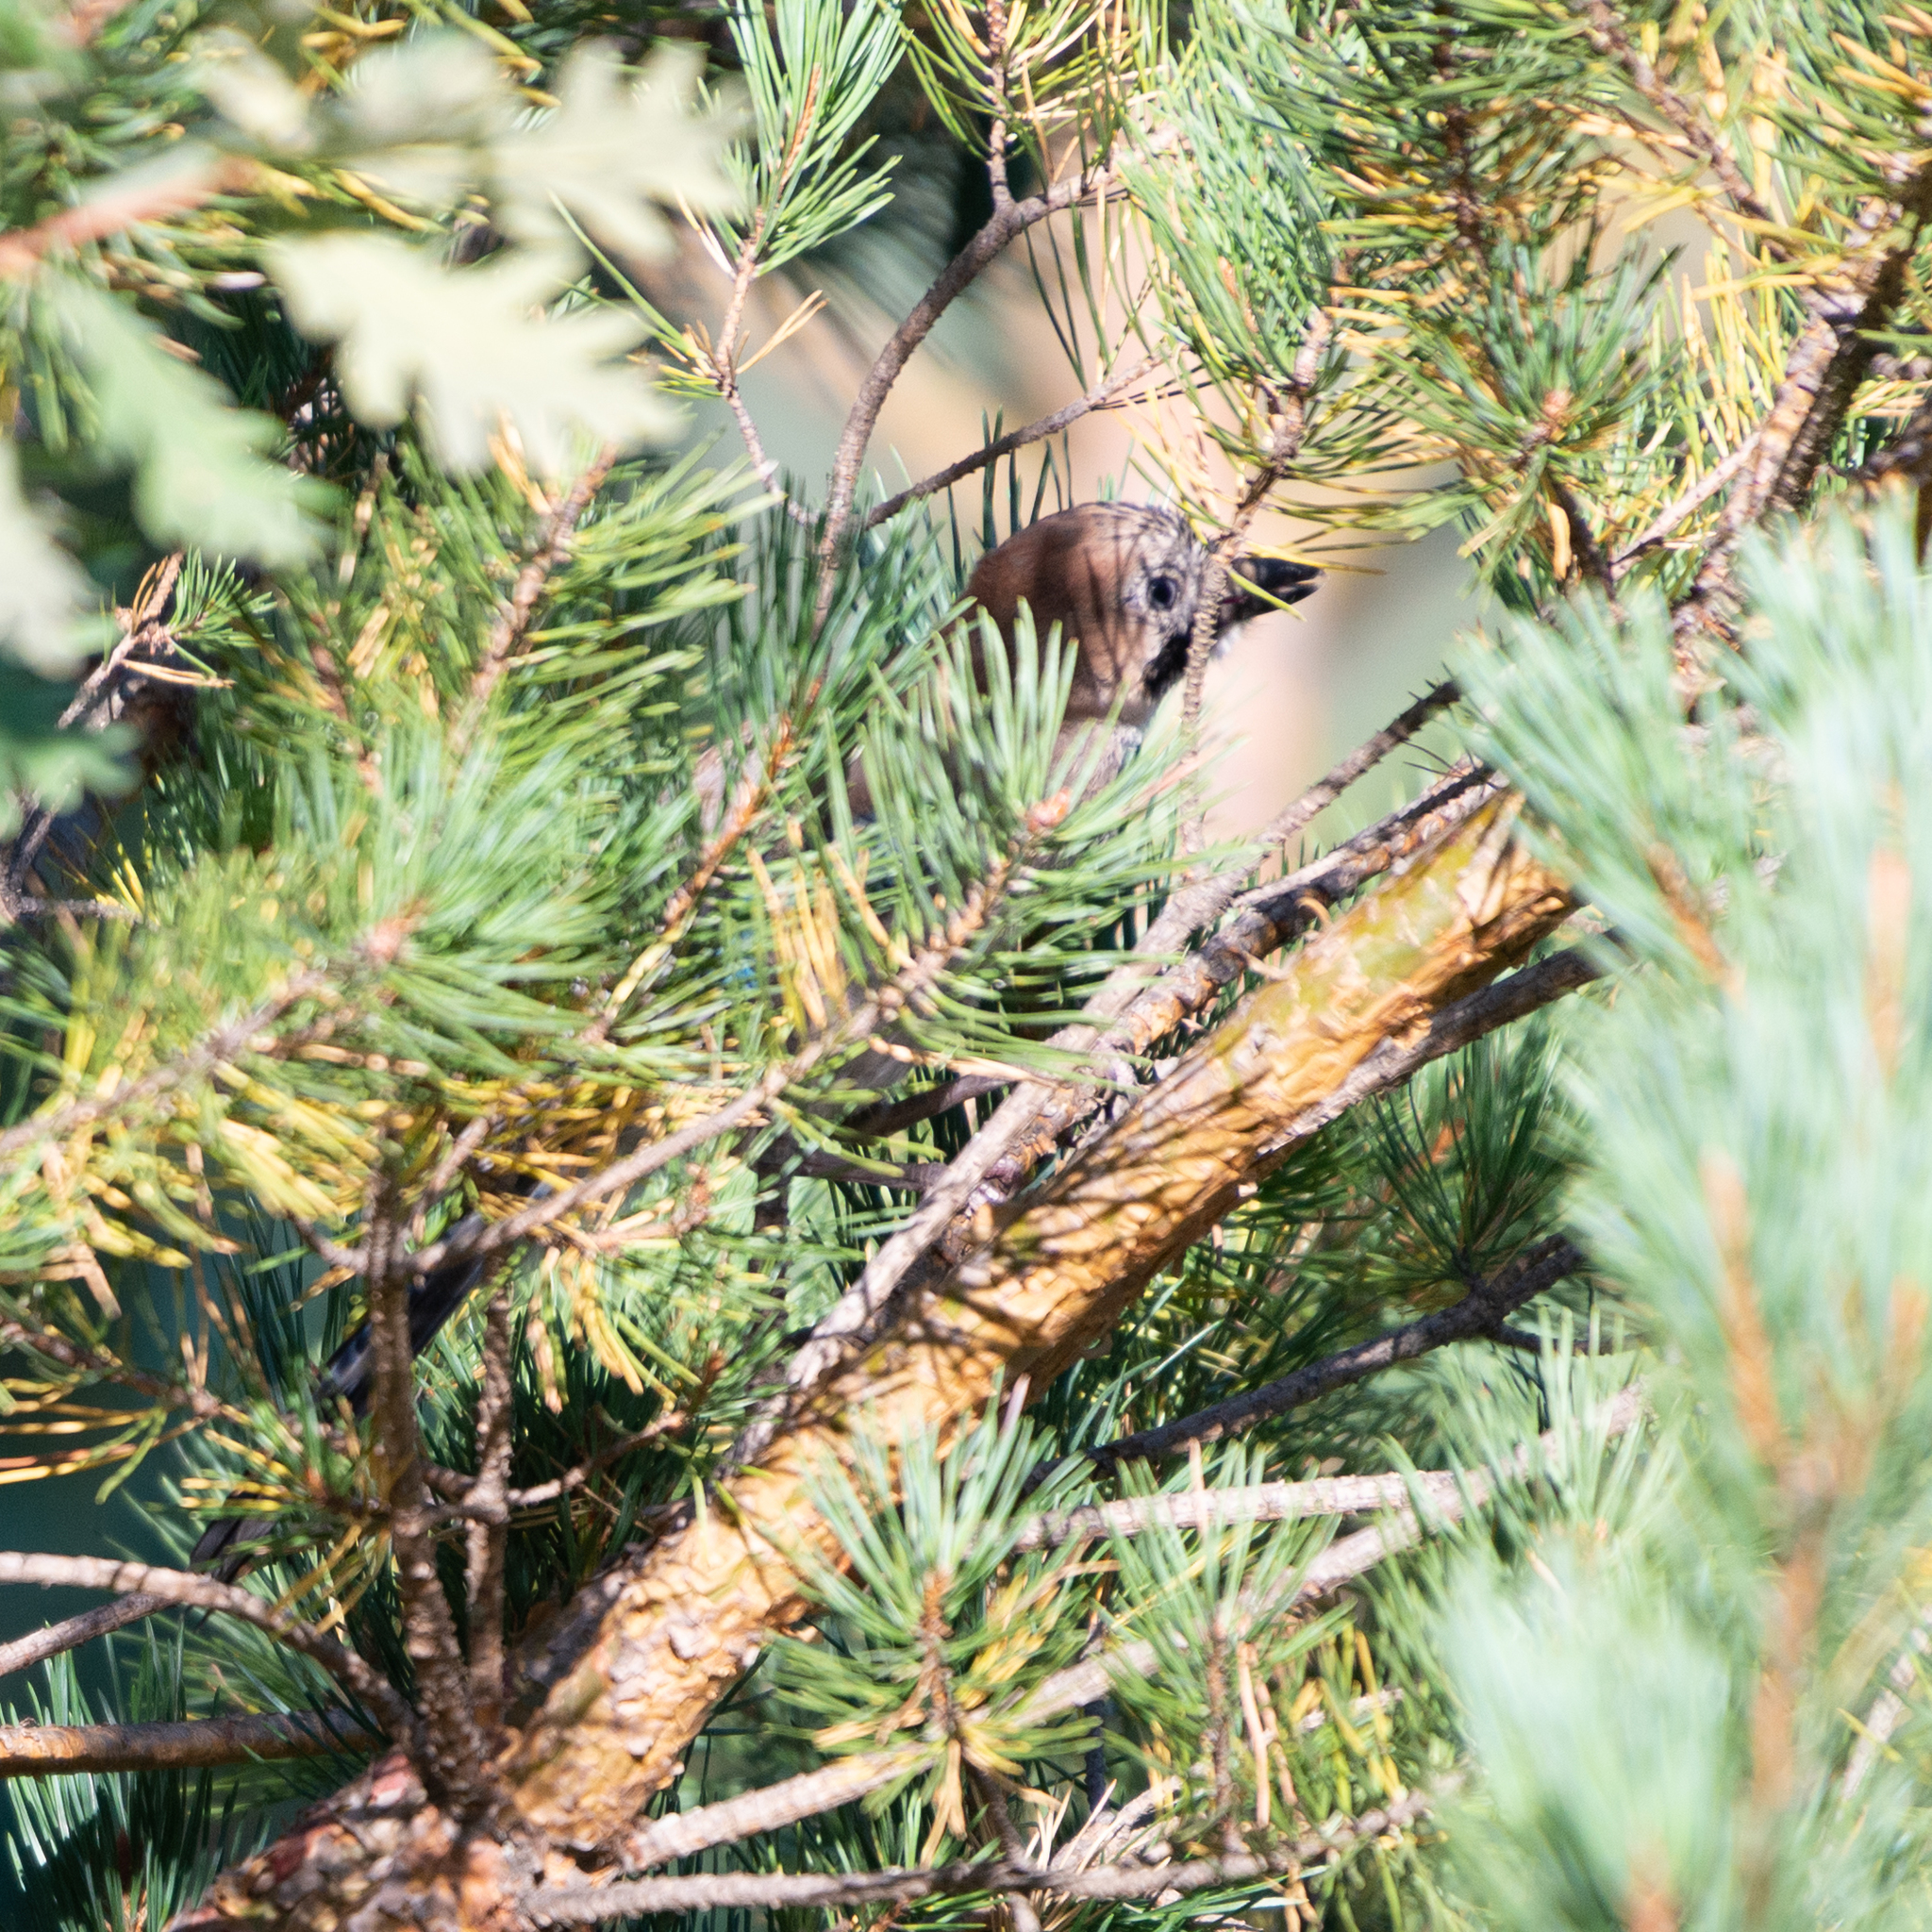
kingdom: Animalia
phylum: Chordata
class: Aves
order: Passeriformes
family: Corvidae
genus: Garrulus
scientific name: Garrulus glandarius
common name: Eurasian jay
